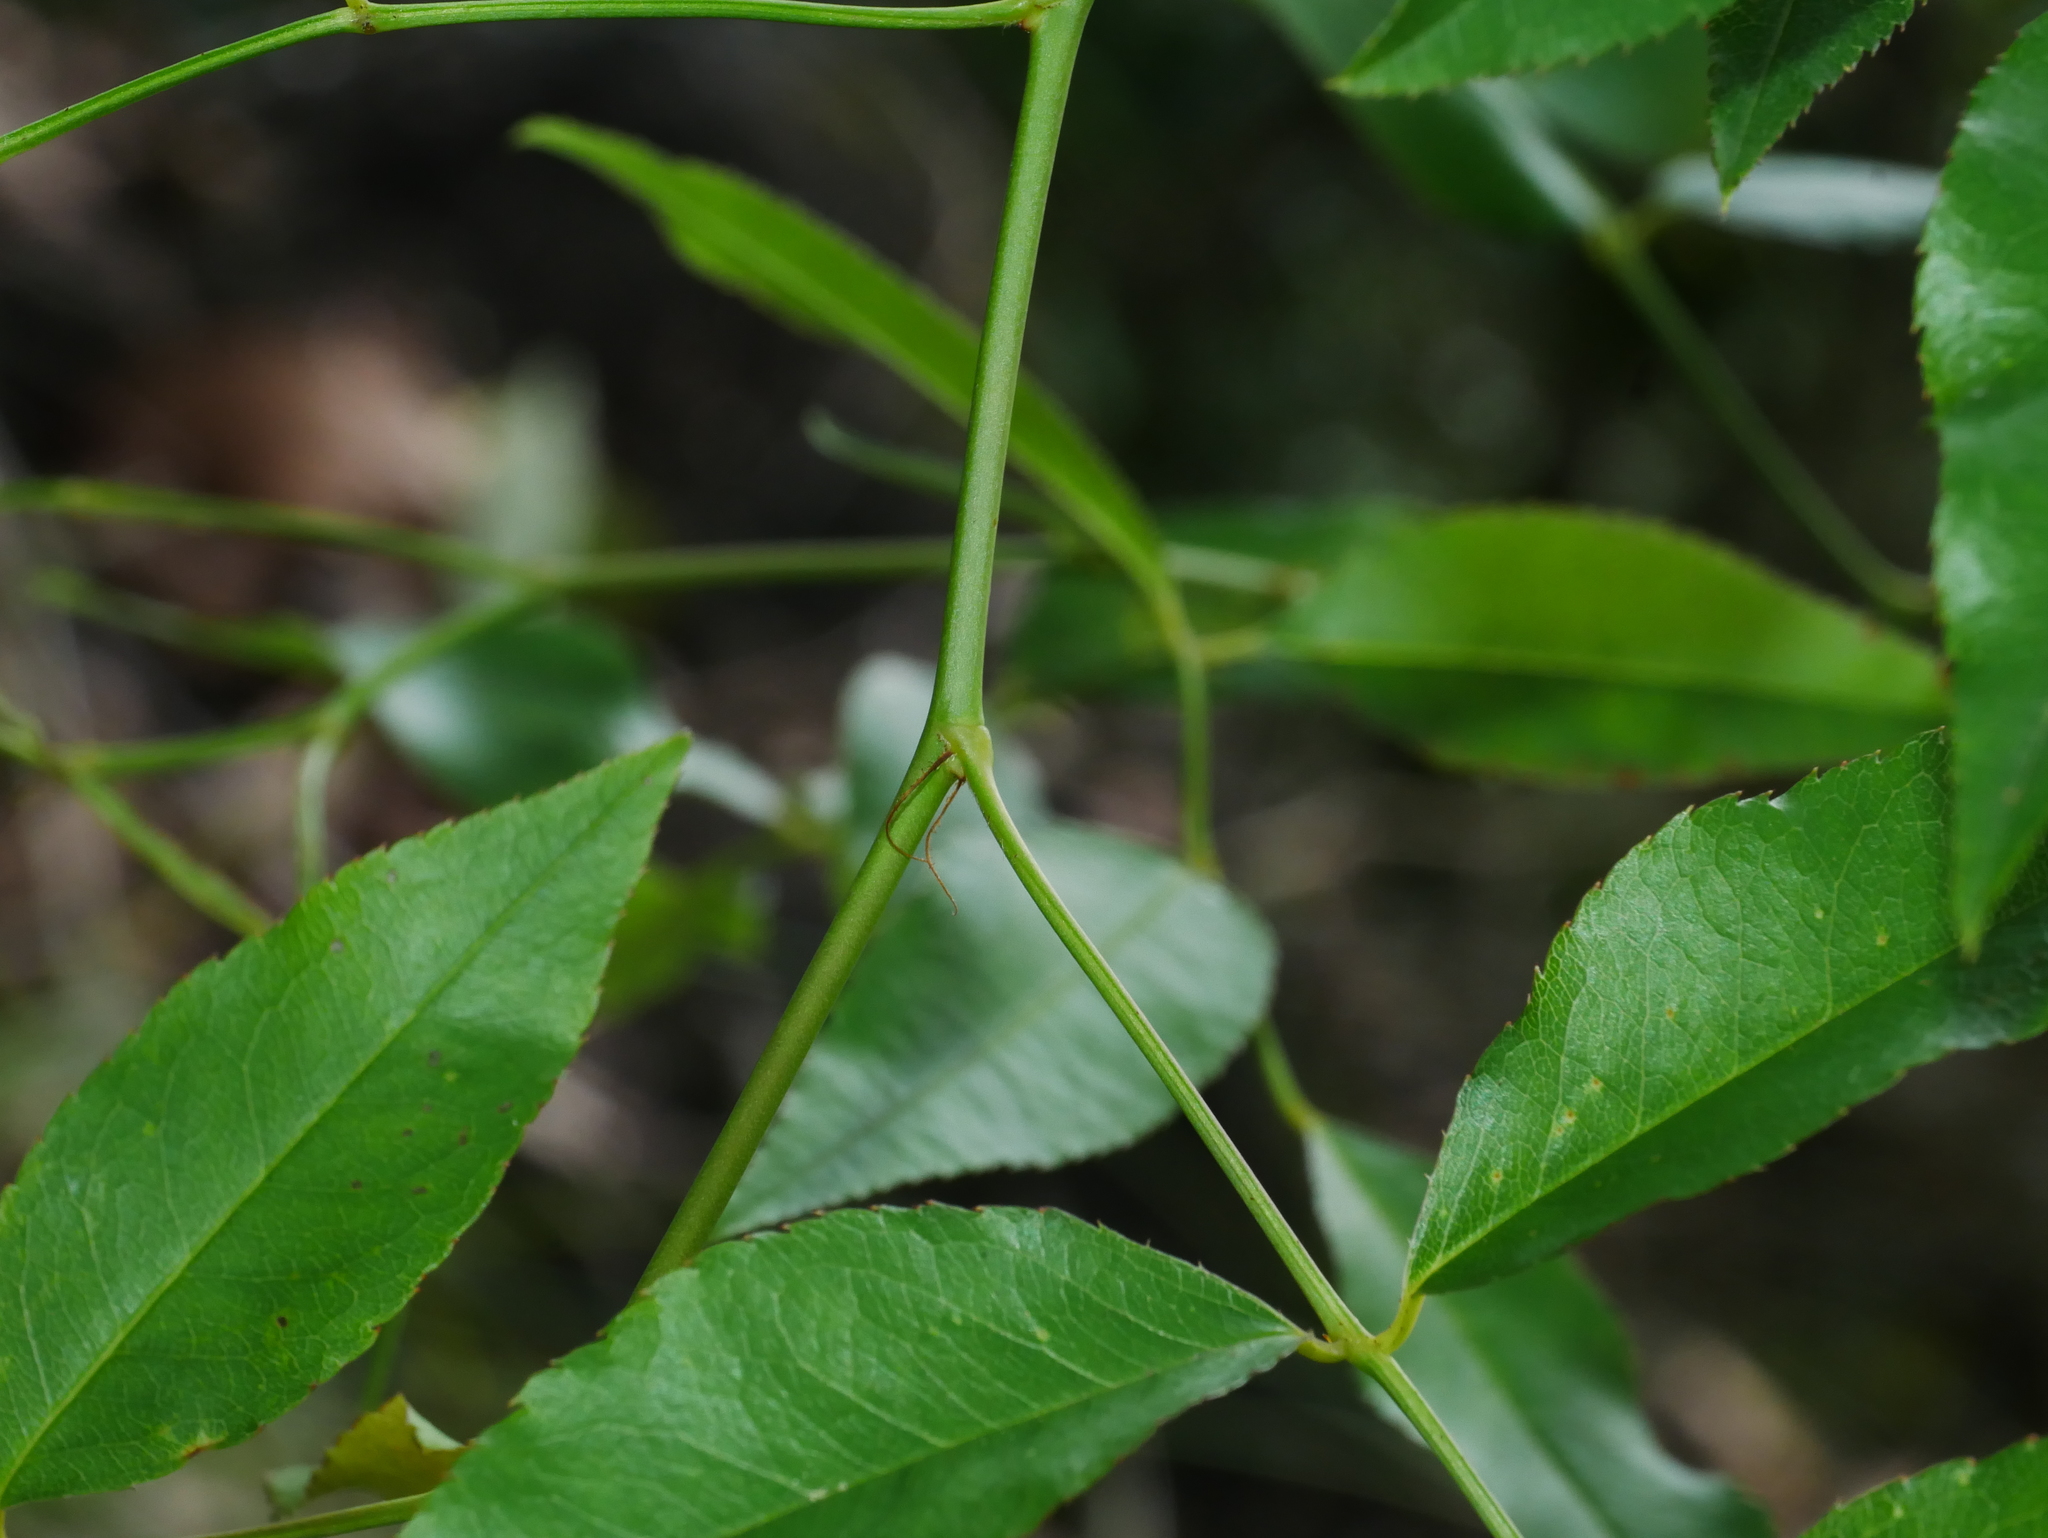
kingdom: Plantae
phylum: Tracheophyta
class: Magnoliopsida
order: Rosales
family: Rosaceae
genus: Rosa
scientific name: Rosa
